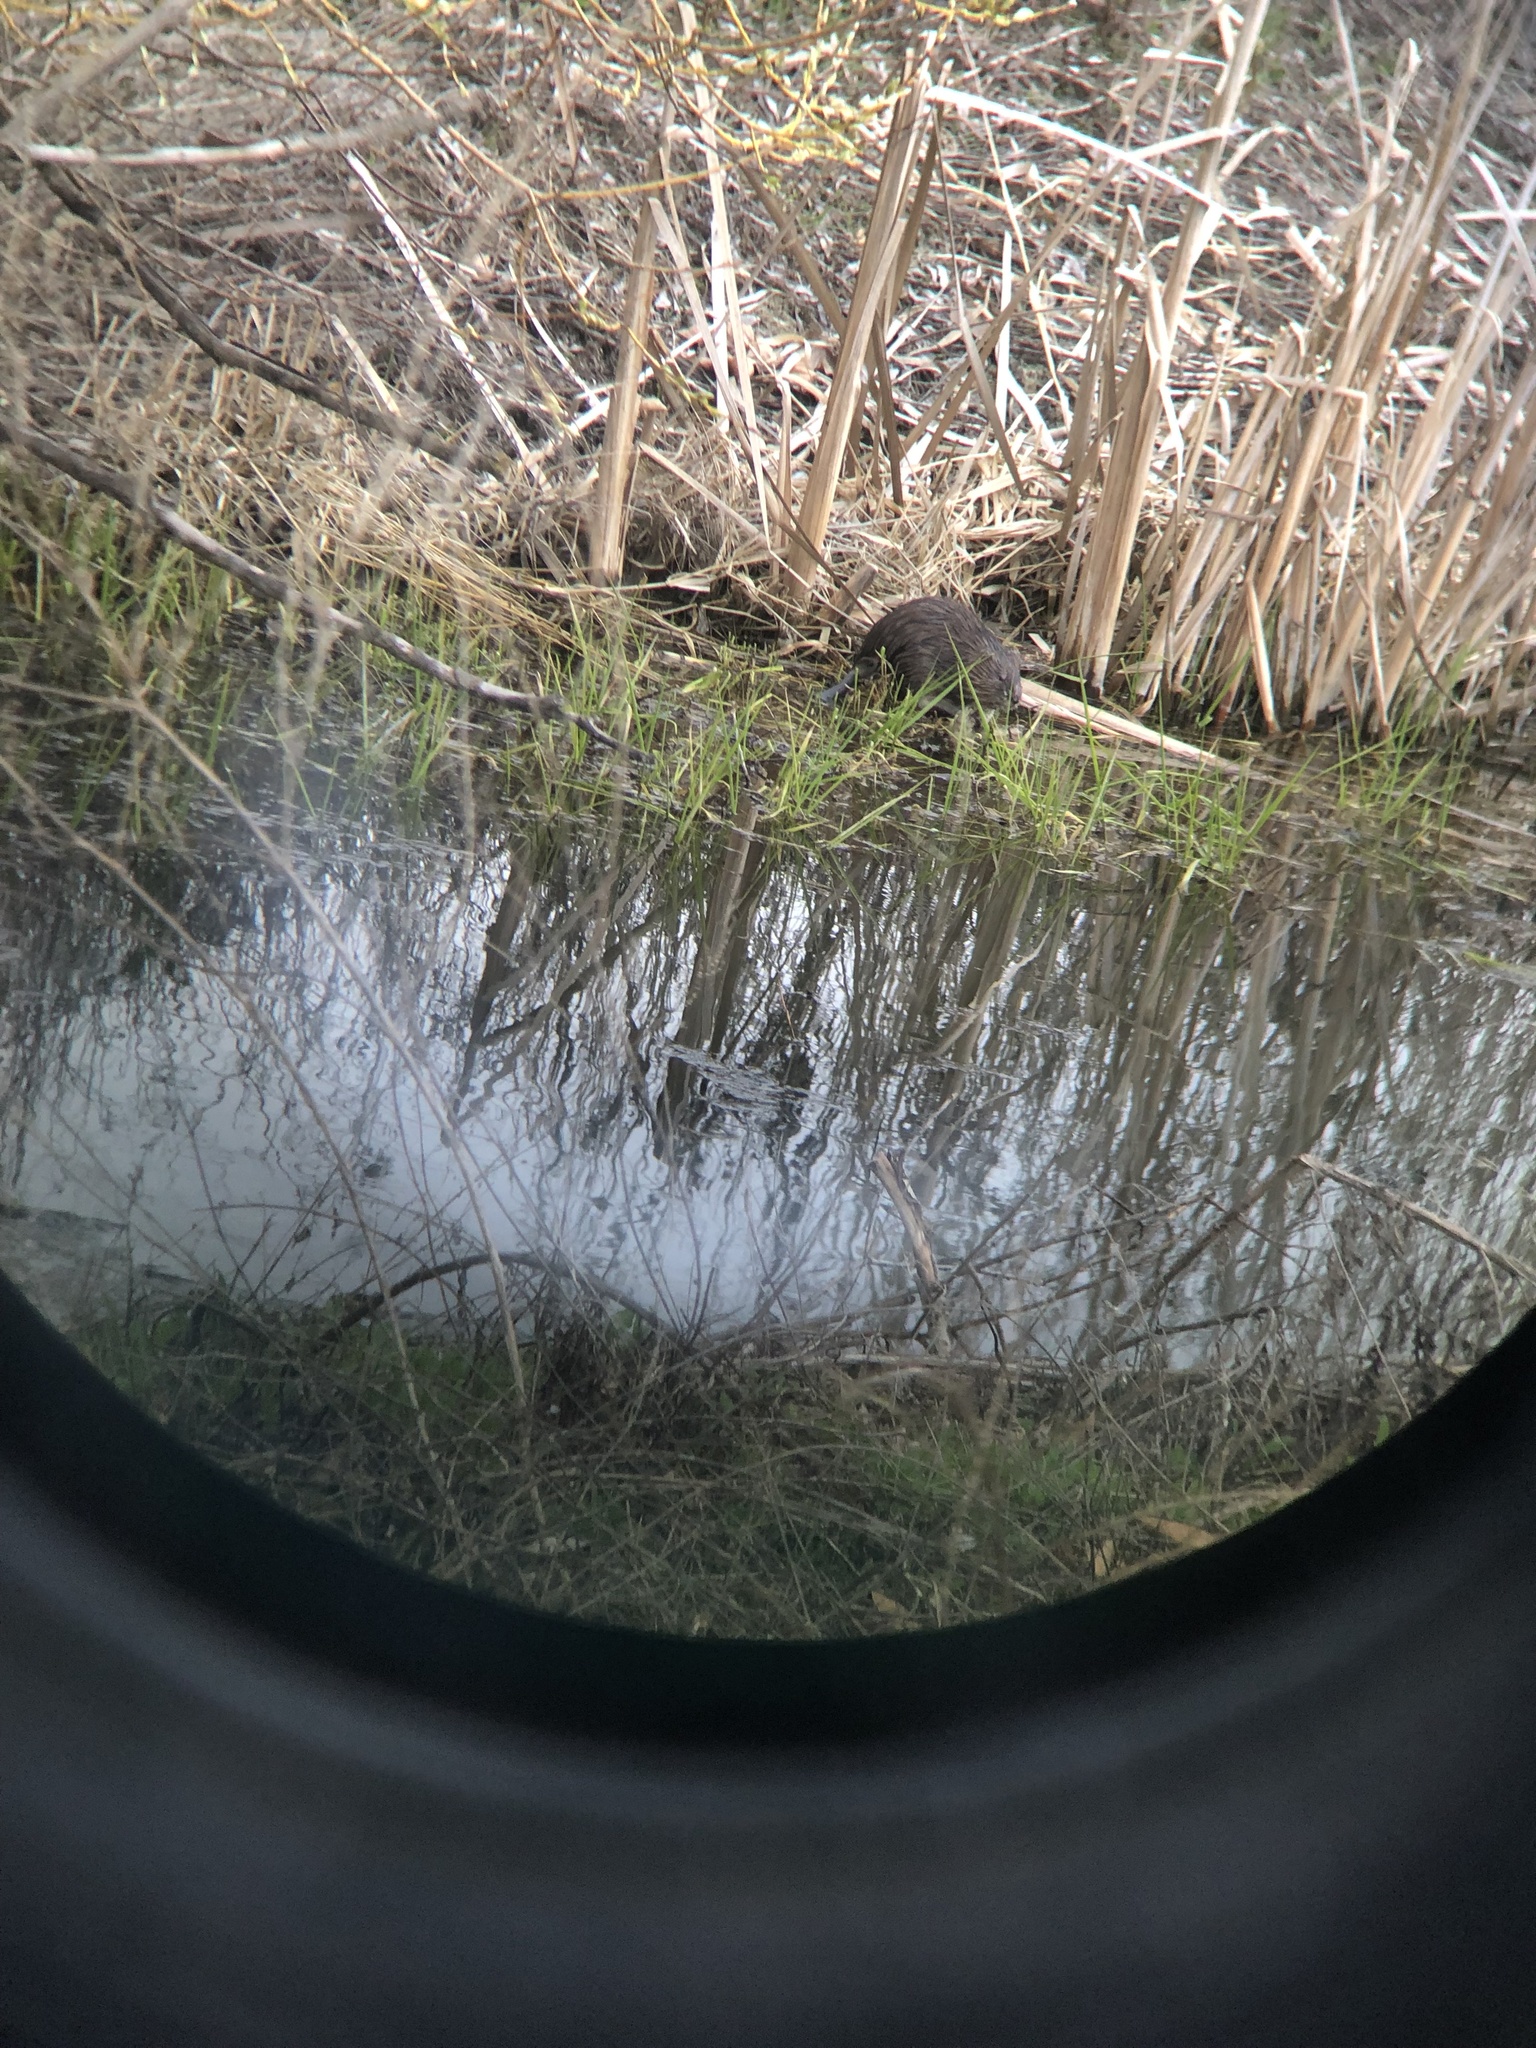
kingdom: Animalia
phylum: Chordata
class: Mammalia
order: Rodentia
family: Cricetidae
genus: Ondatra
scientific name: Ondatra zibethicus
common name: Muskrat
